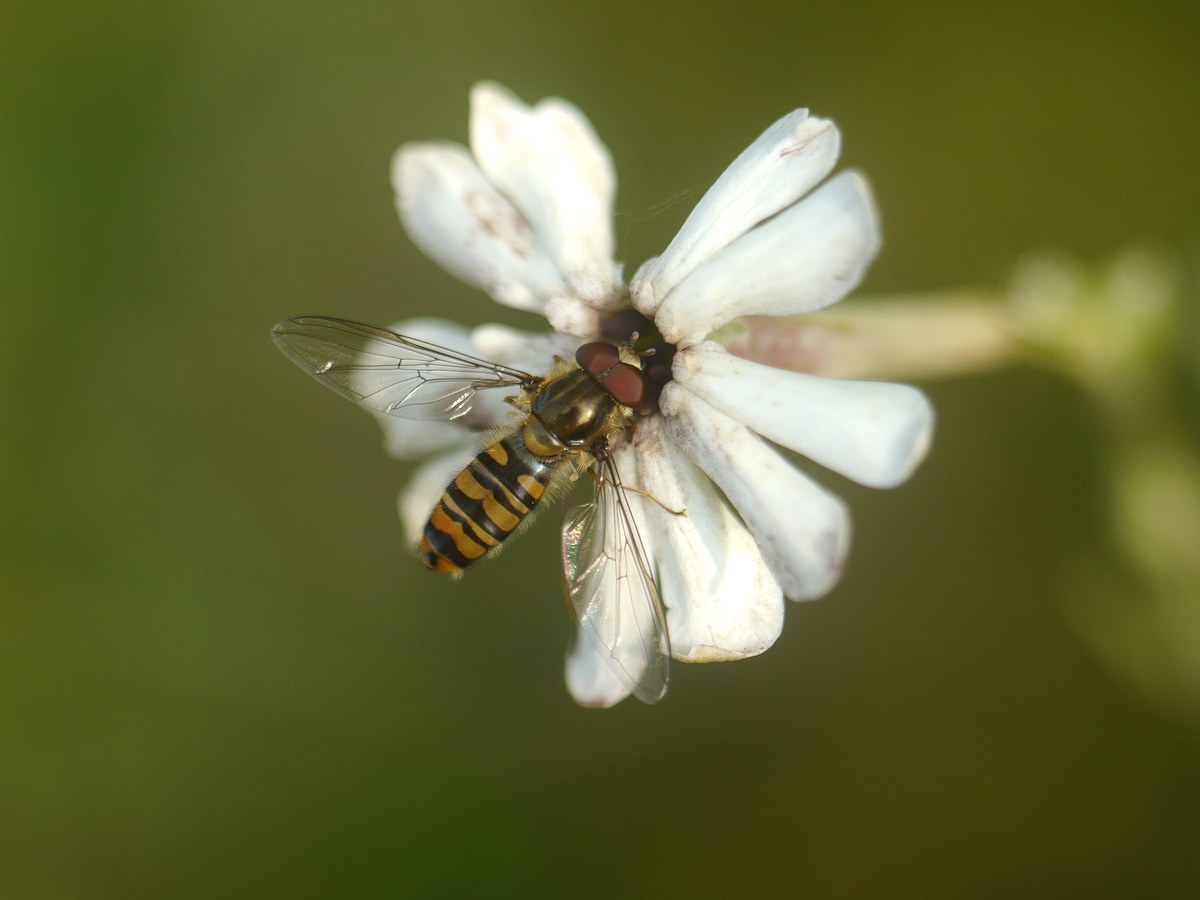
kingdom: Animalia
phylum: Arthropoda
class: Insecta
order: Diptera
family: Syrphidae
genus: Episyrphus
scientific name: Episyrphus balteatus
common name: Marmalade hoverfly
